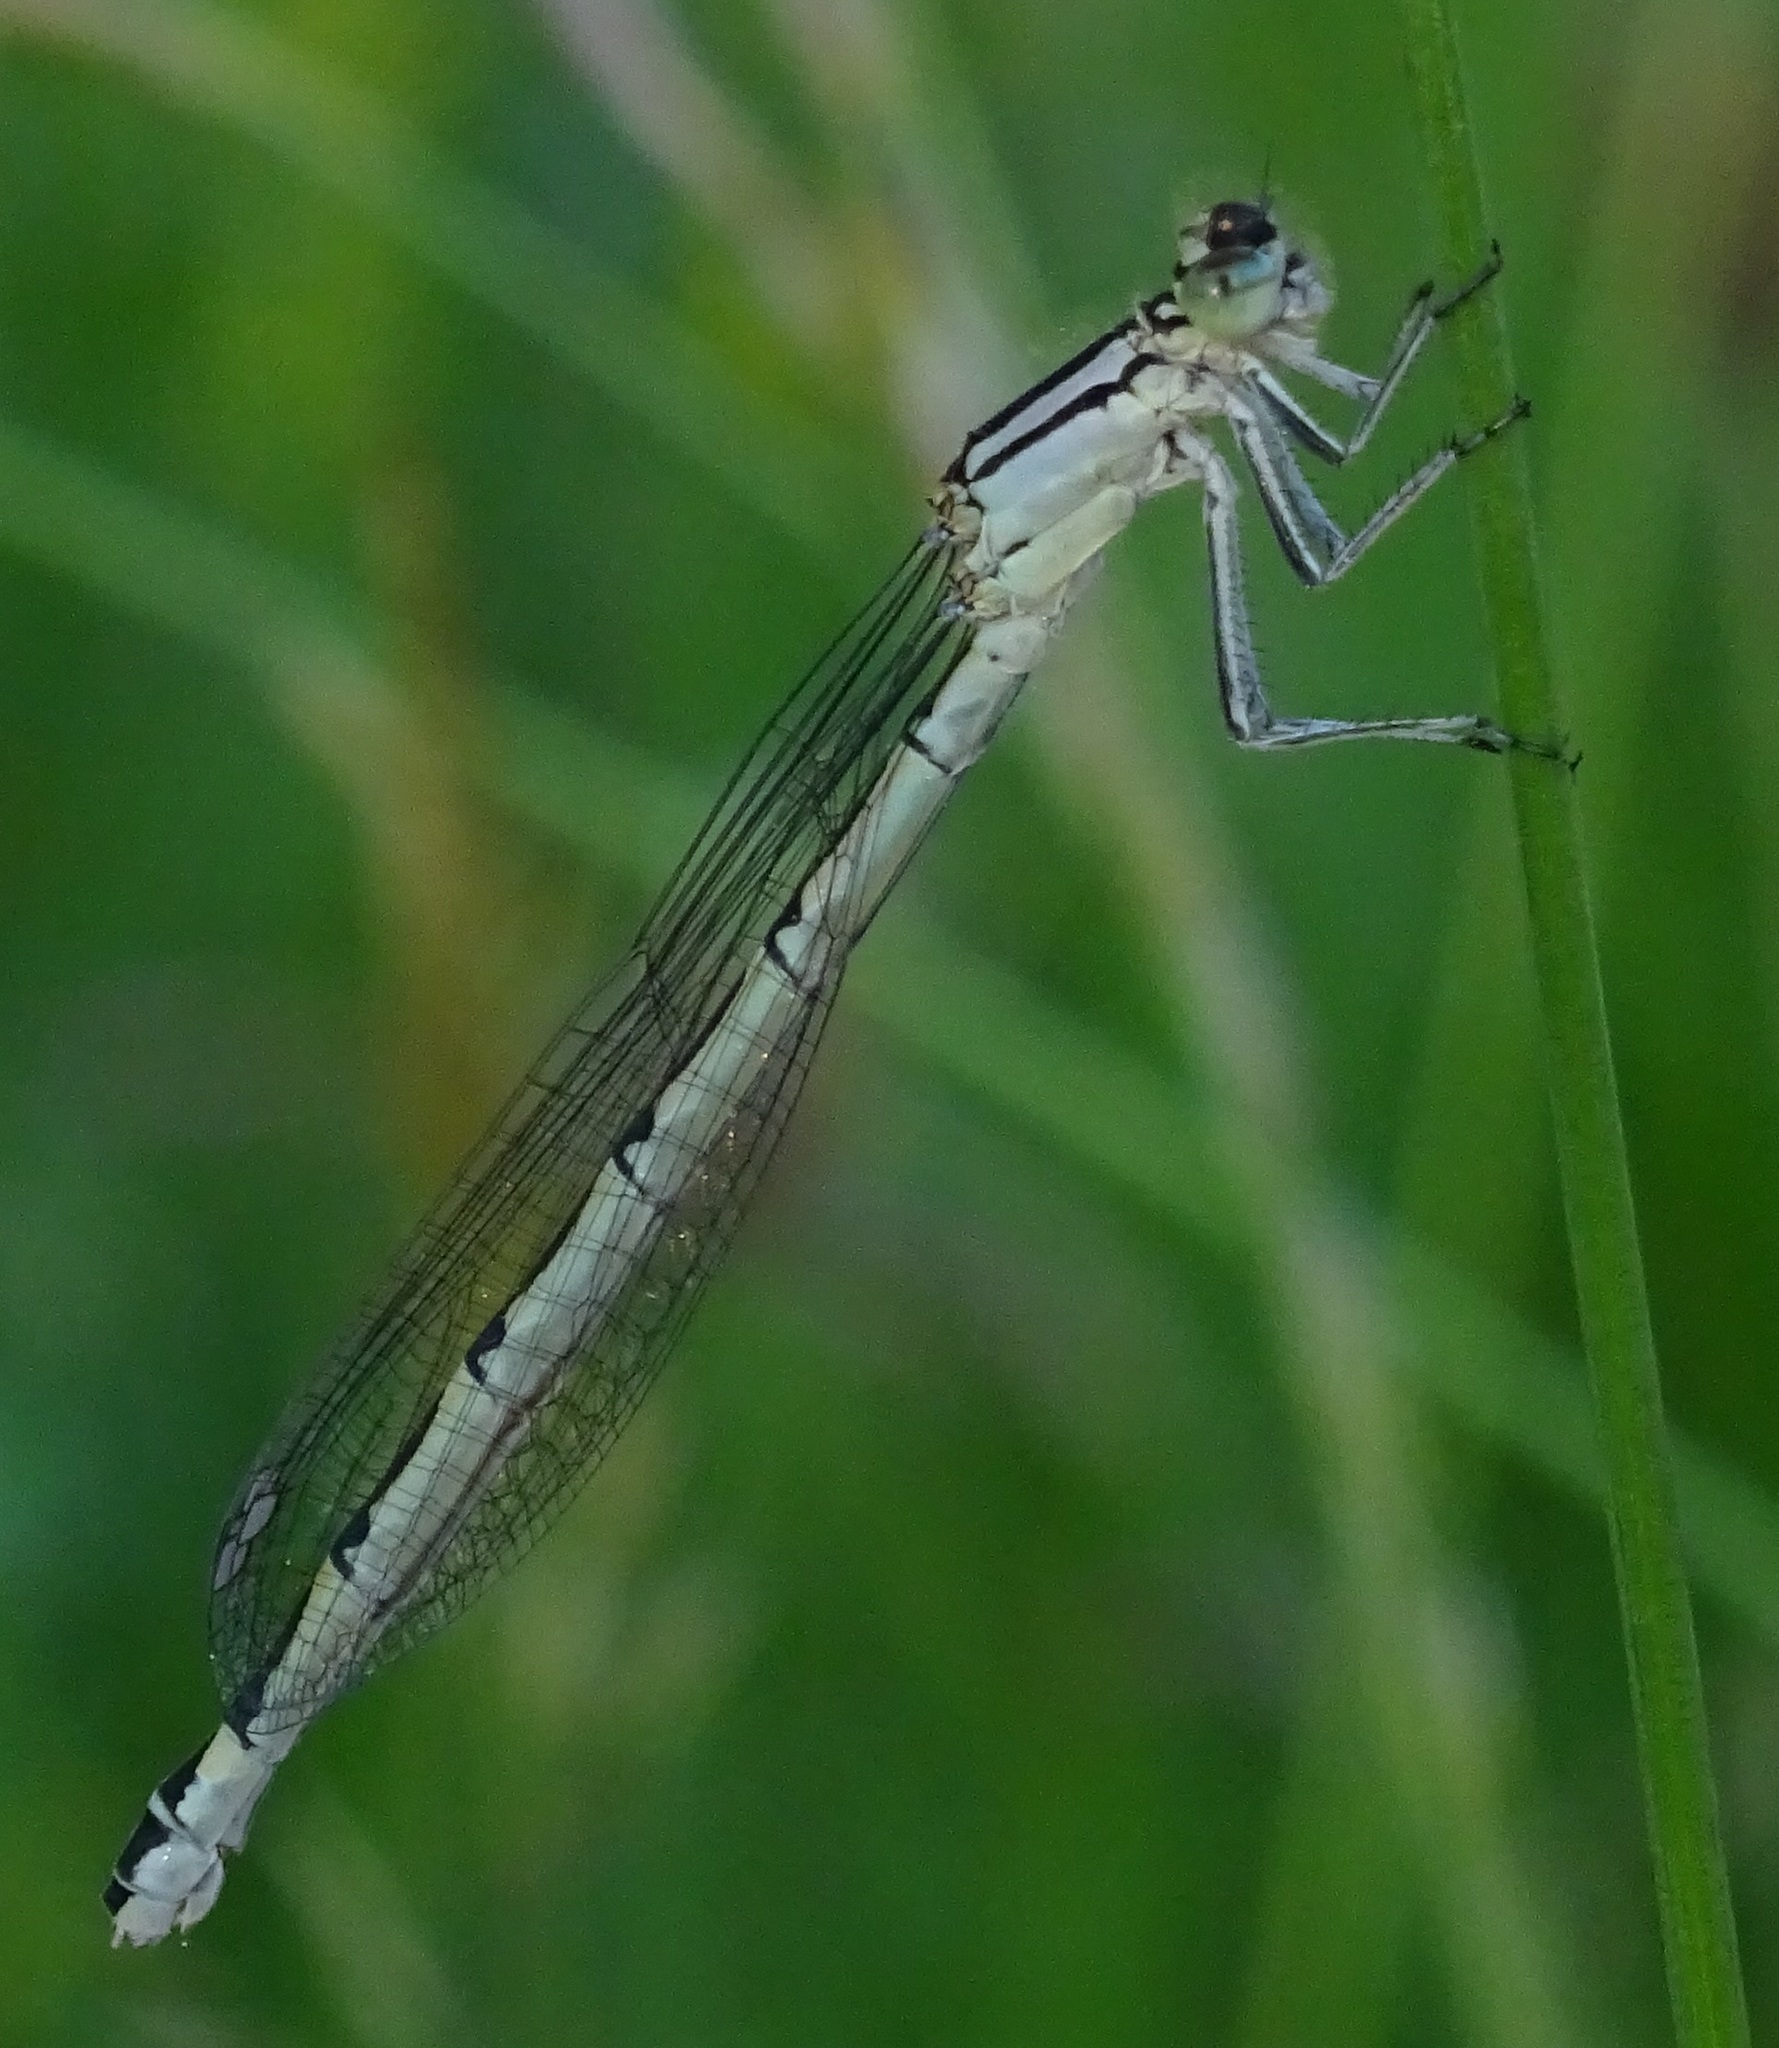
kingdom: Animalia
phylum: Arthropoda
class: Insecta
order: Odonata
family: Coenagrionidae
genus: Enallagma
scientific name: Enallagma cyathigerum
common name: Common blue damselfly
